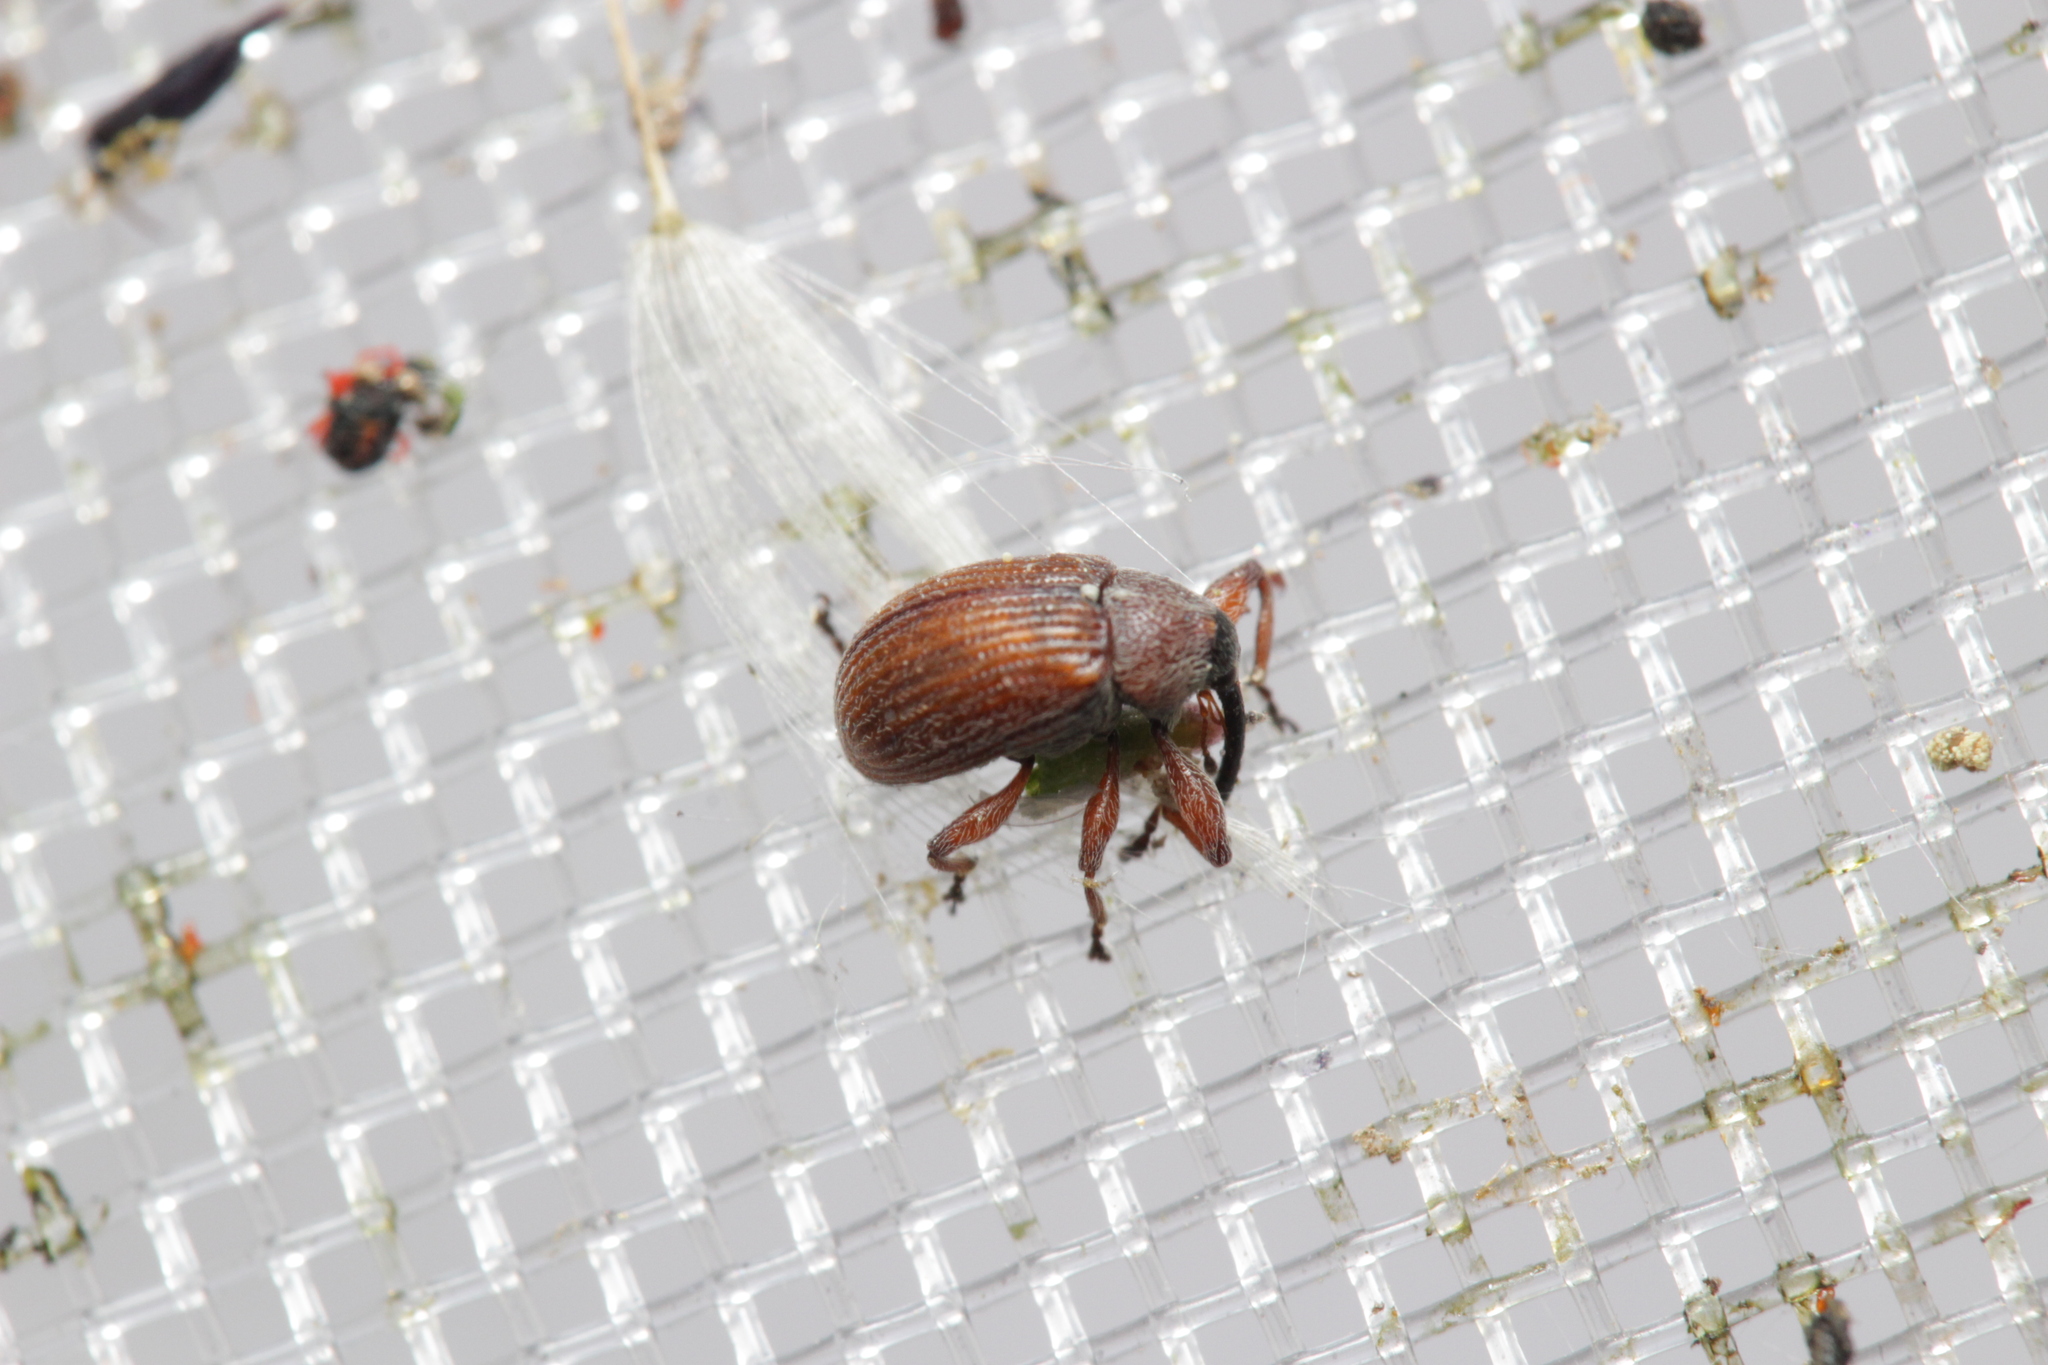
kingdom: Animalia
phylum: Arthropoda
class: Insecta
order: Coleoptera
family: Curculionidae
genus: Anthonomus
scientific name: Anthonomus phyllocola
